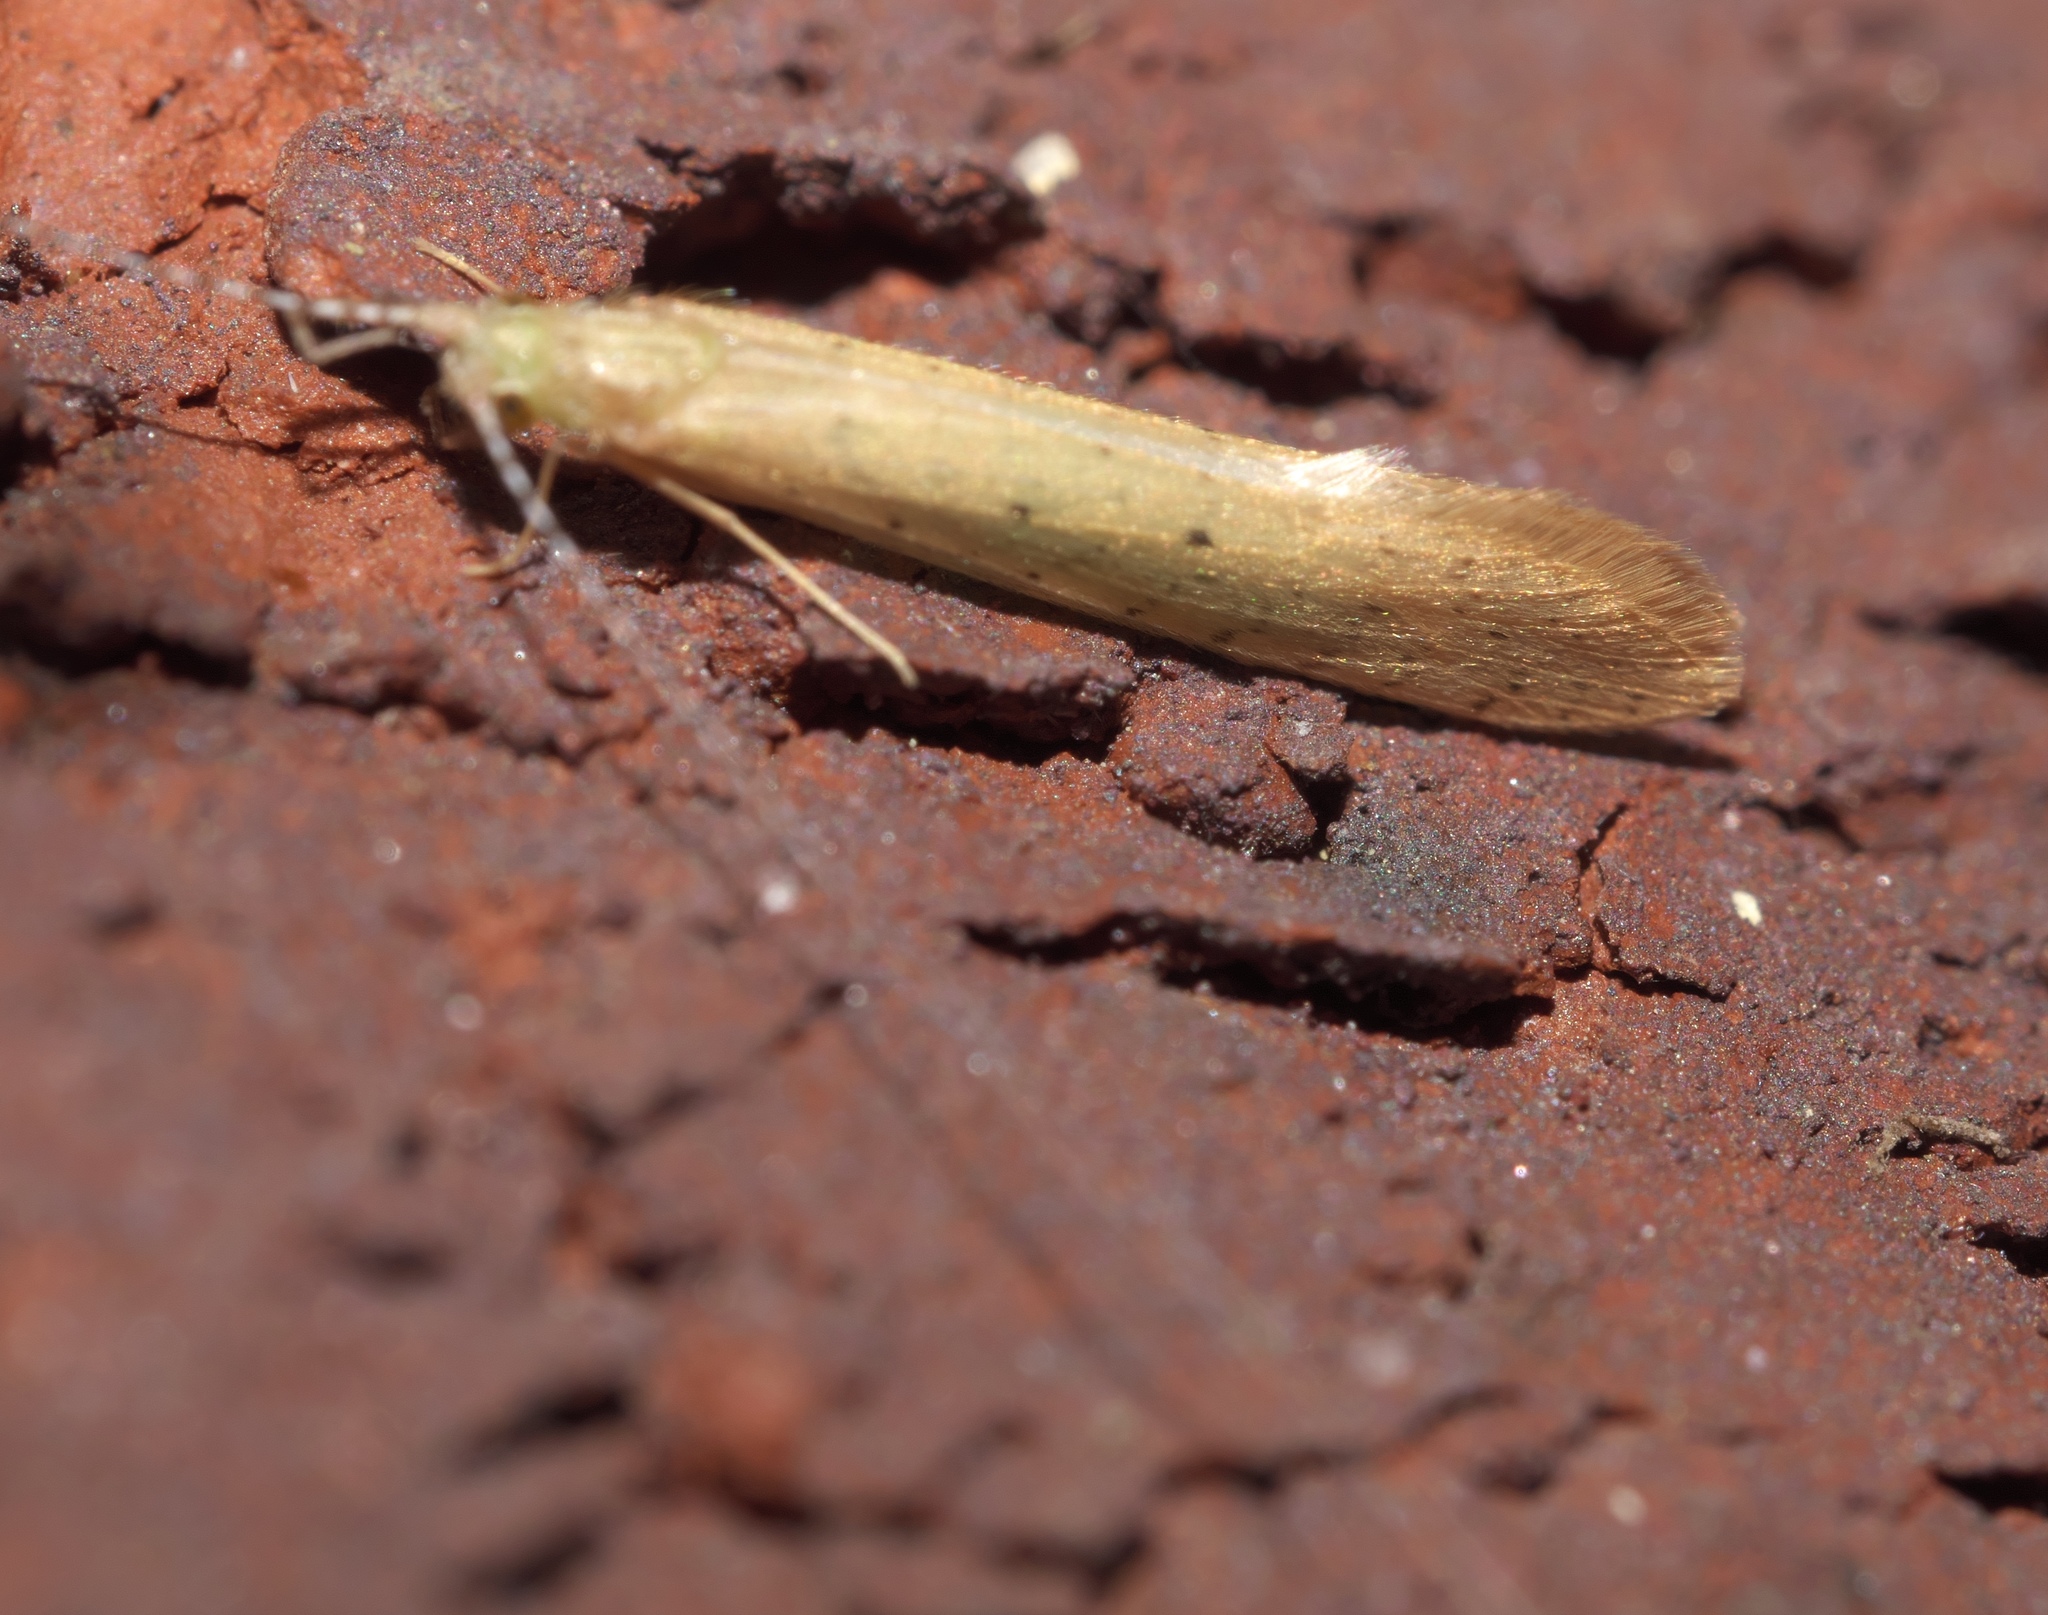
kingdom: Animalia
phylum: Arthropoda
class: Insecta
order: Trichoptera
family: Leptoceridae
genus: Nectopsyche
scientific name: Nectopsyche pavida
